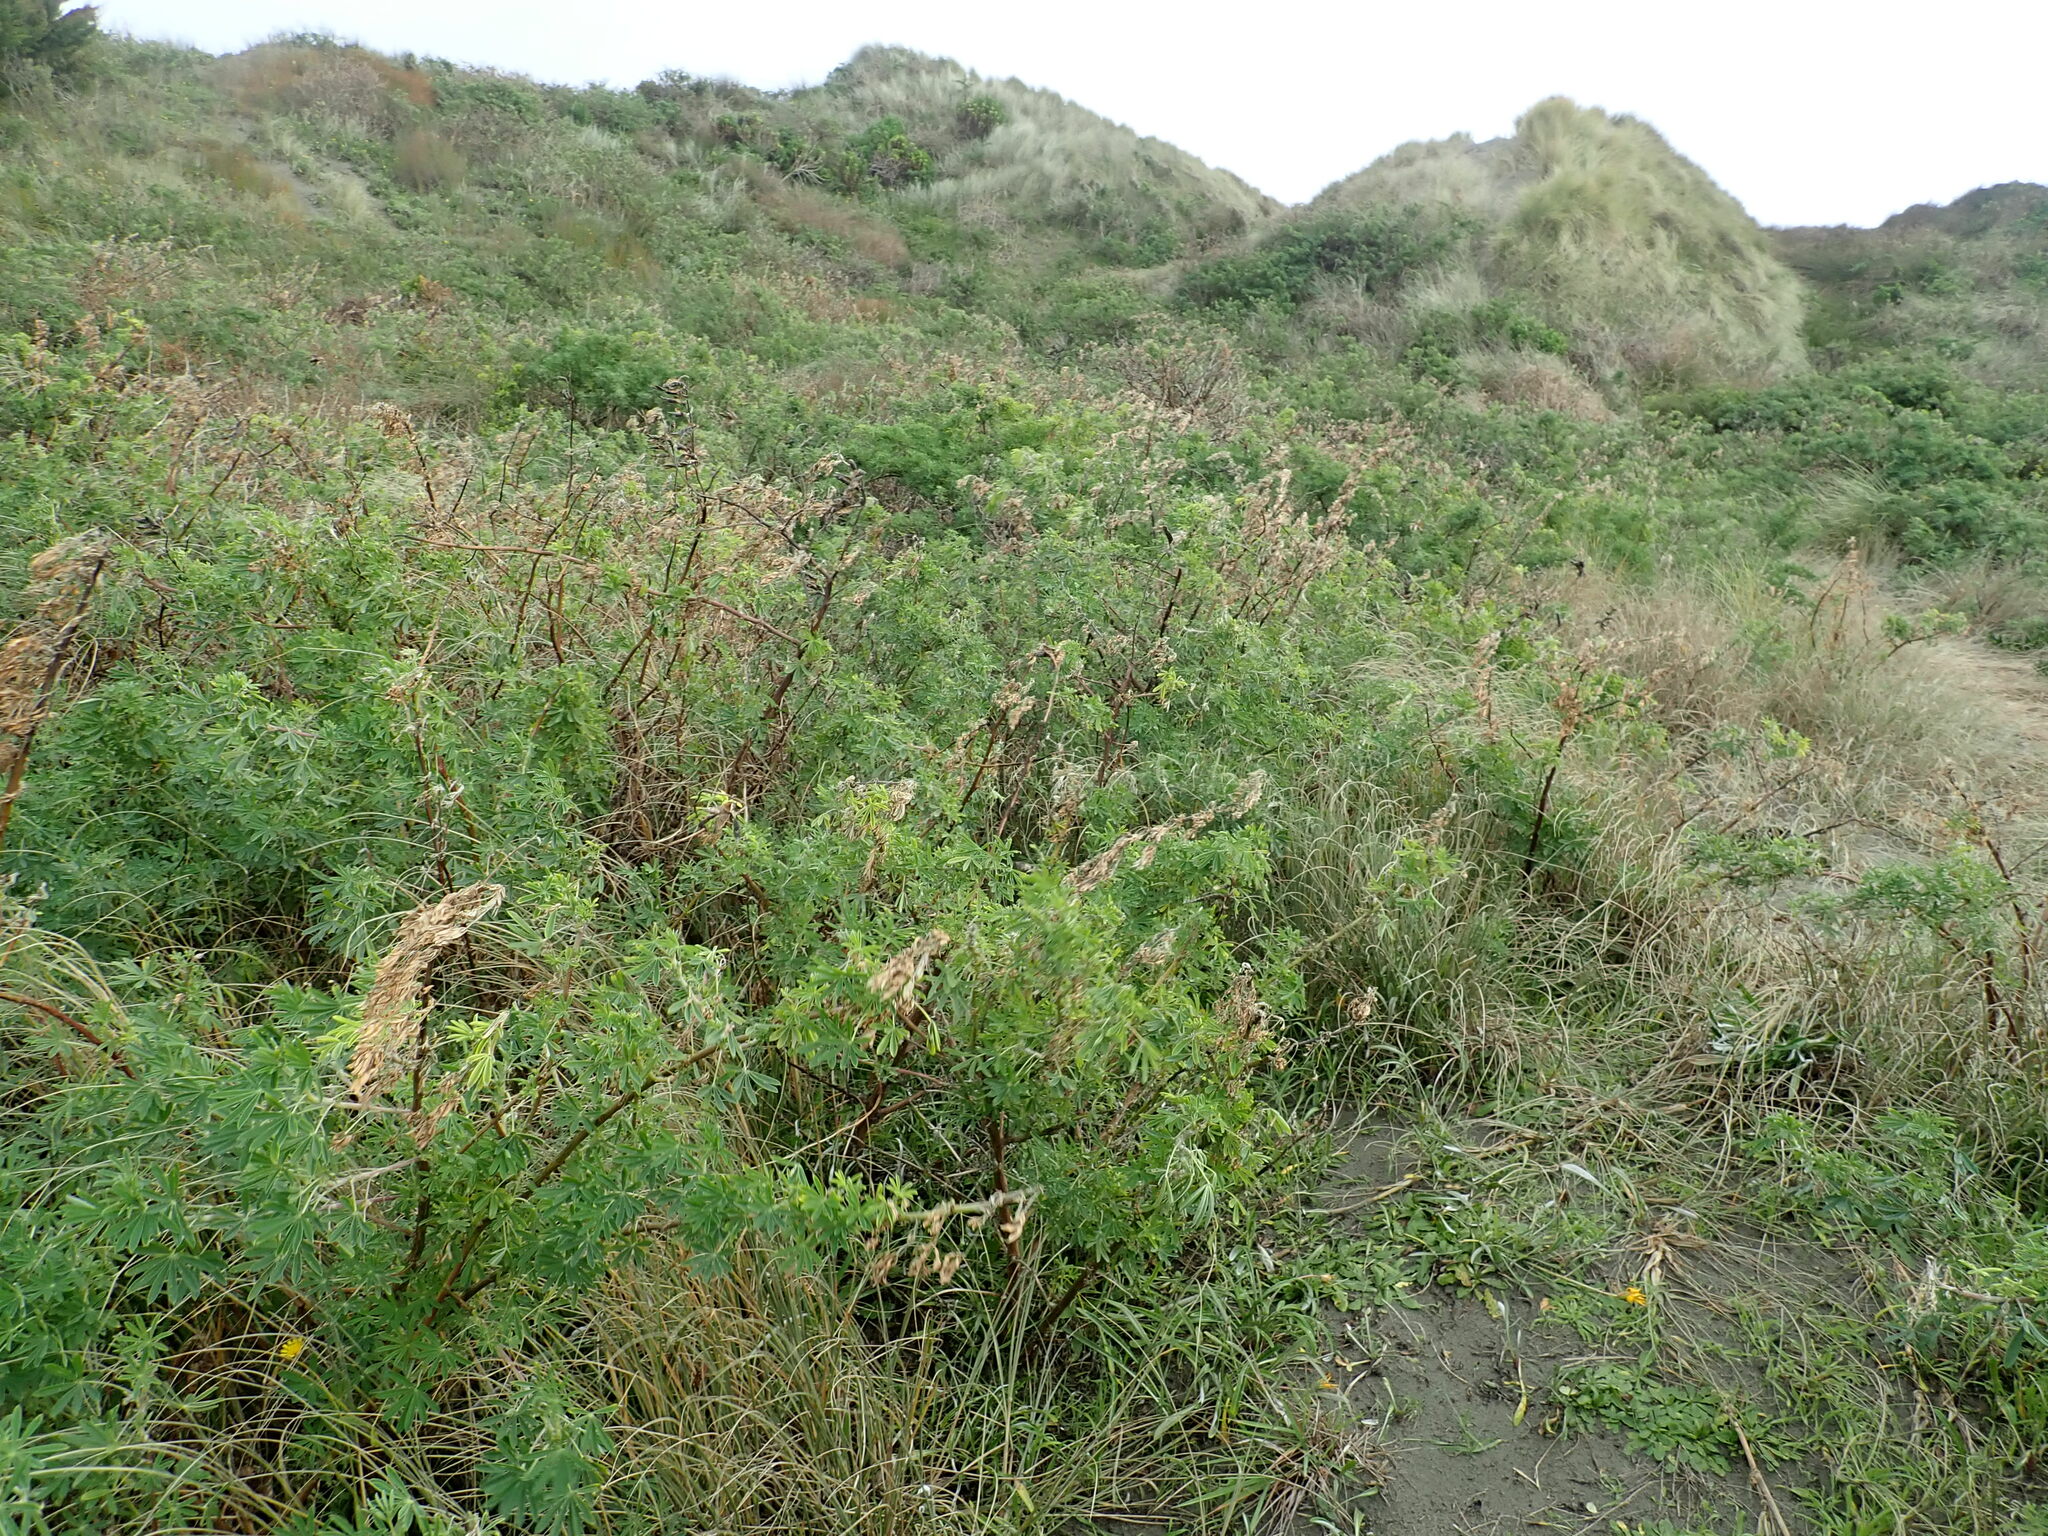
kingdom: Plantae
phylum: Tracheophyta
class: Magnoliopsida
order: Fabales
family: Fabaceae
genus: Lupinus
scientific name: Lupinus arboreus
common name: Yellow bush lupine
